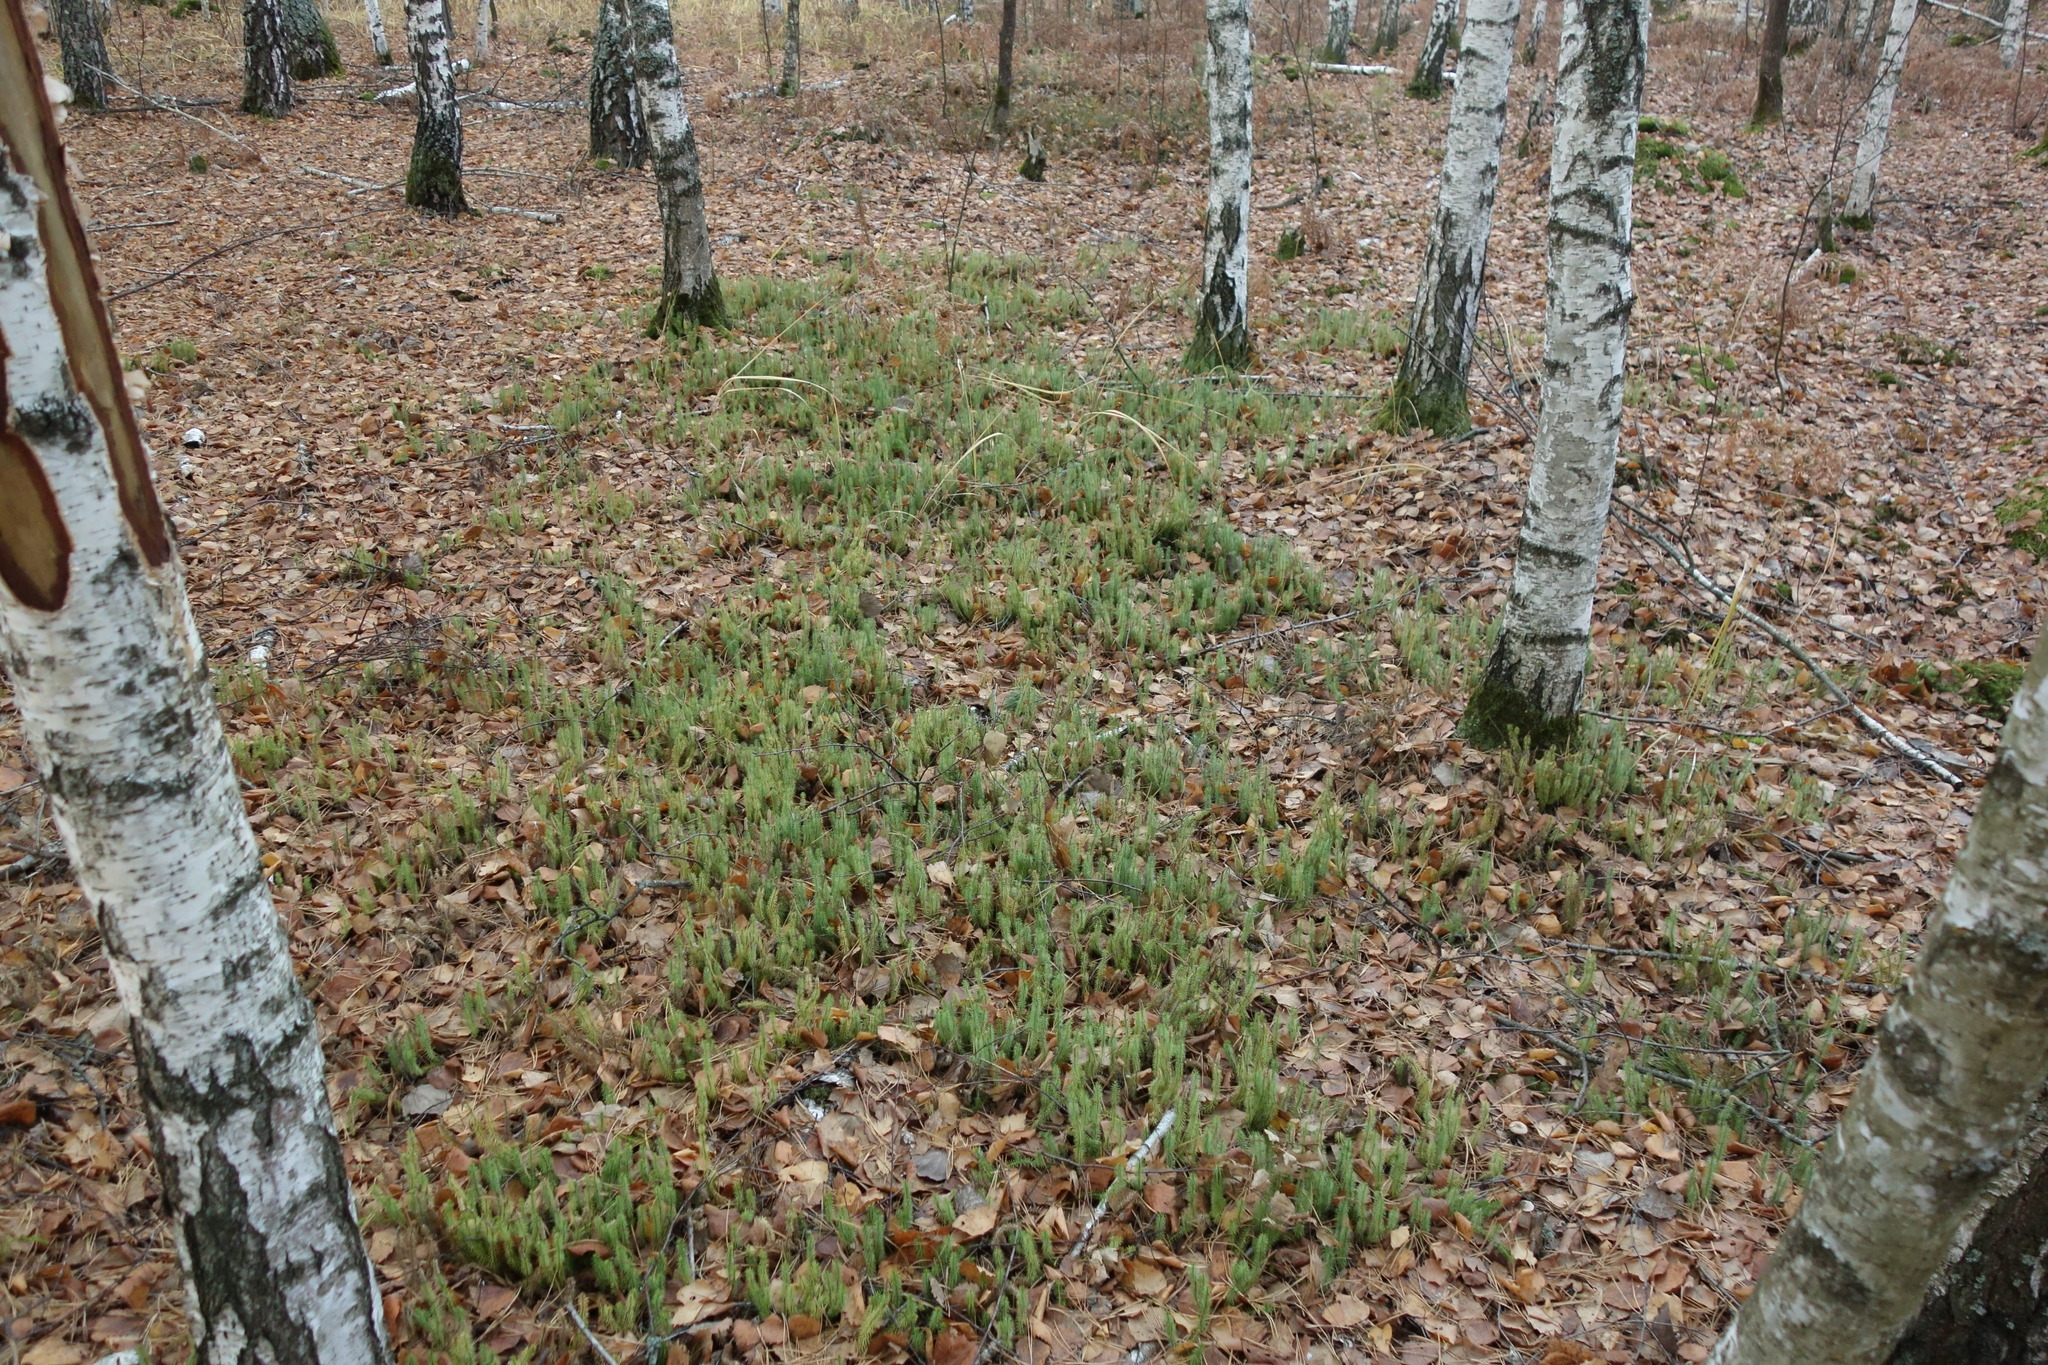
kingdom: Plantae
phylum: Tracheophyta
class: Lycopodiopsida
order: Lycopodiales
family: Lycopodiaceae
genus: Spinulum
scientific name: Spinulum annotinum
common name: Interrupted club-moss
